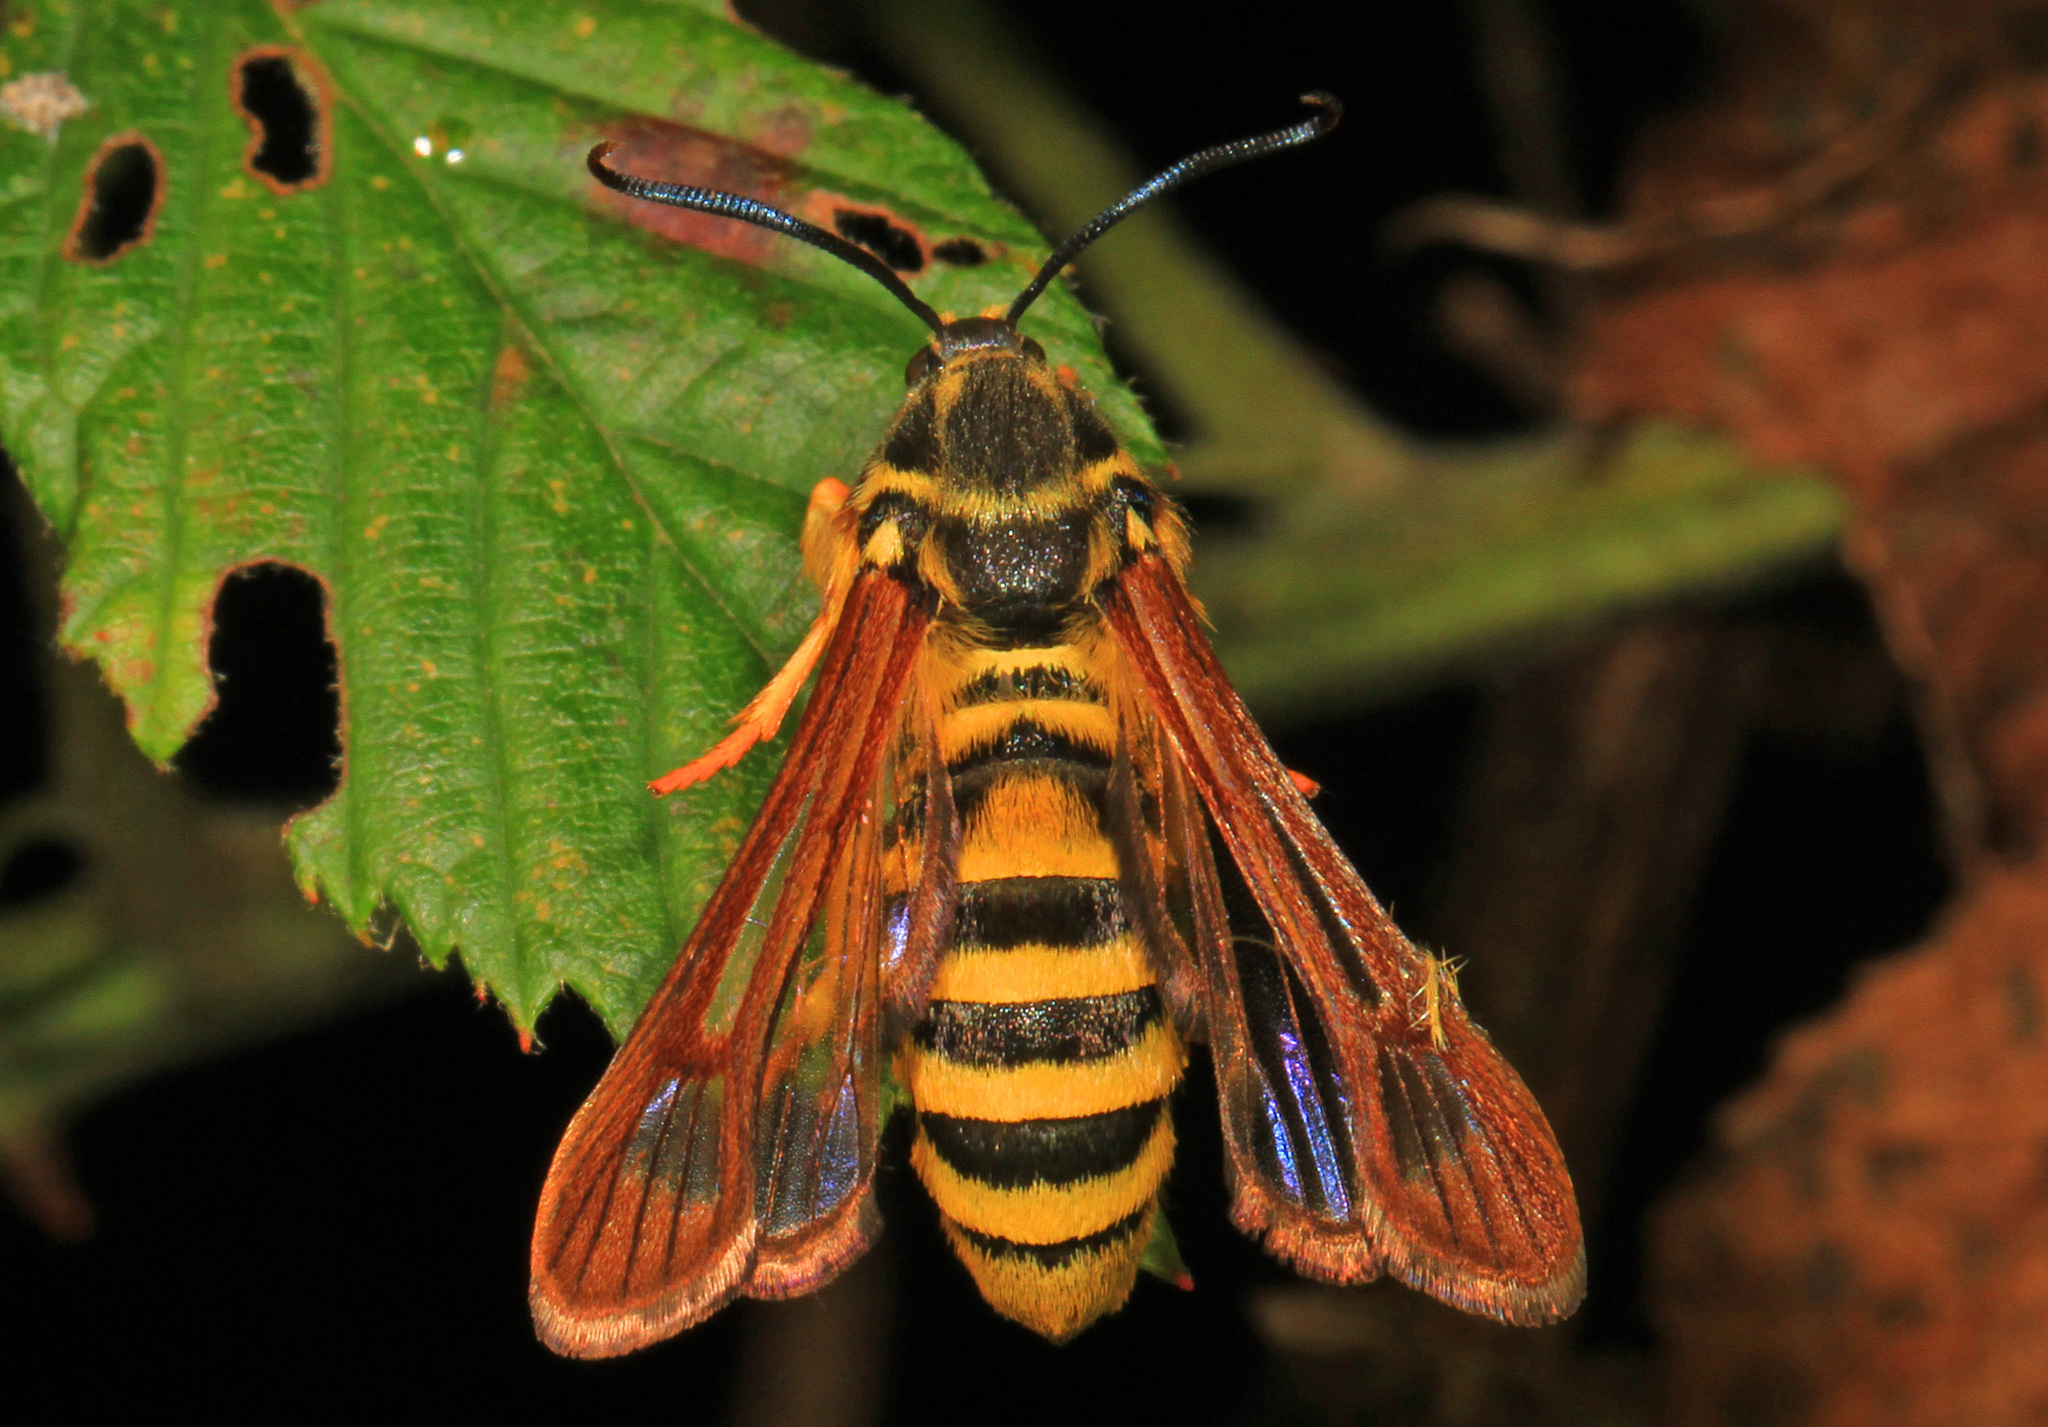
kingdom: Animalia
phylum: Arthropoda
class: Insecta
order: Lepidoptera
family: Sesiidae
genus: Pennisetia
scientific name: Pennisetia marginatum
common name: Raspberry crown borer
